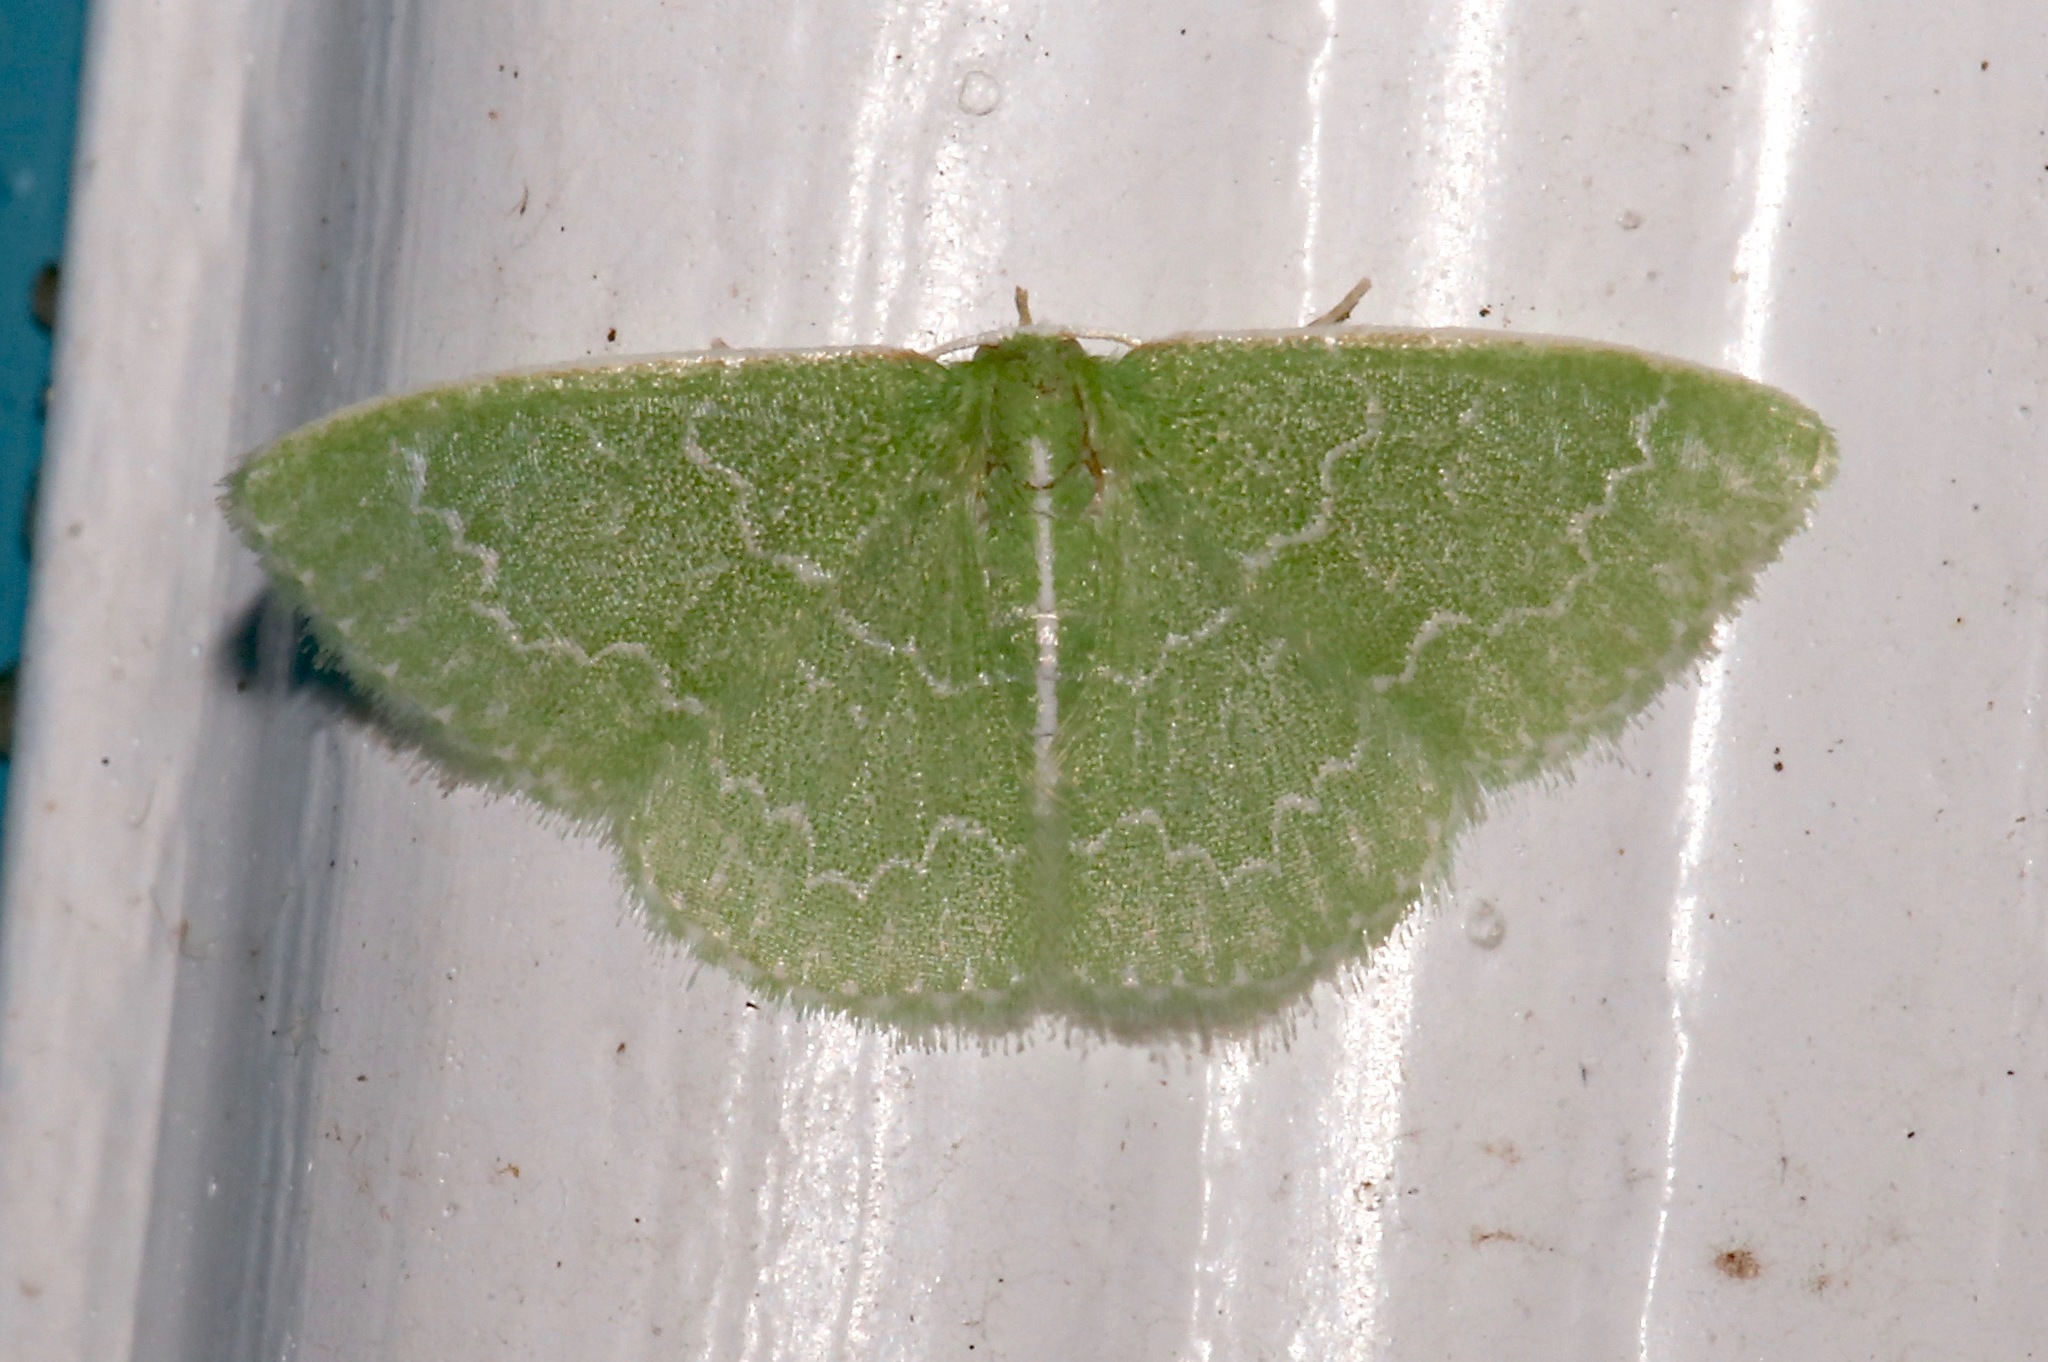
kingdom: Animalia
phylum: Arthropoda
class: Insecta
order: Lepidoptera
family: Geometridae
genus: Synchlora
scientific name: Synchlora frondaria
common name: Southern emerald
